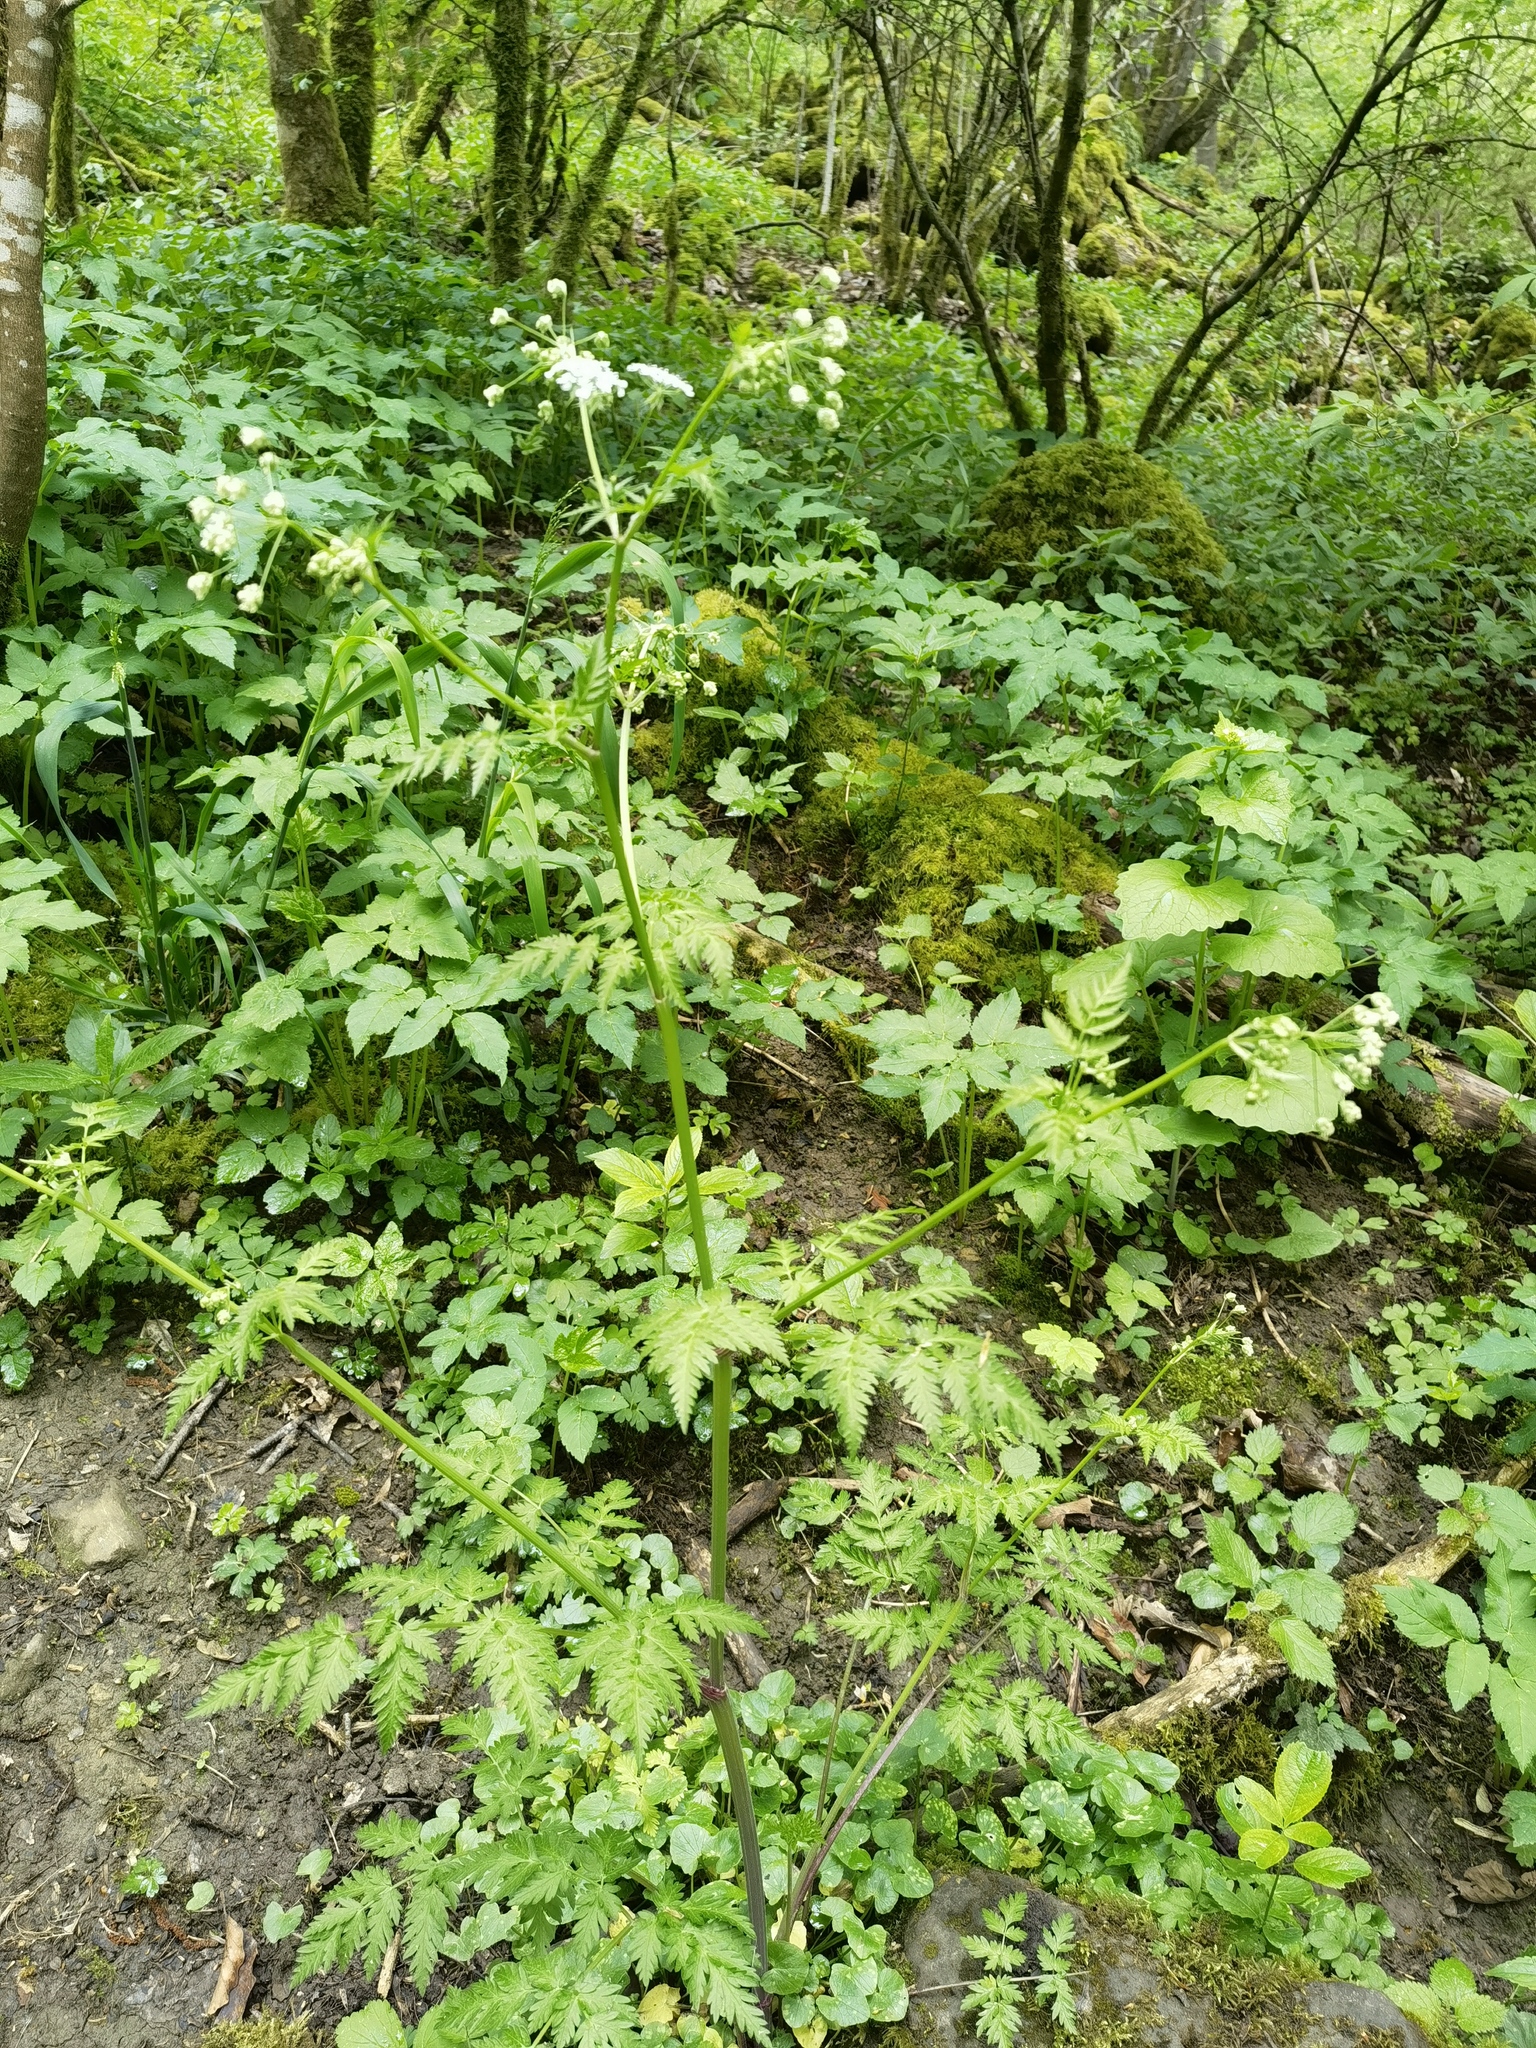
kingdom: Plantae
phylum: Tracheophyta
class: Magnoliopsida
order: Apiales
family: Apiaceae
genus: Anthriscus
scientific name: Anthriscus sylvestris
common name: Cow parsley
